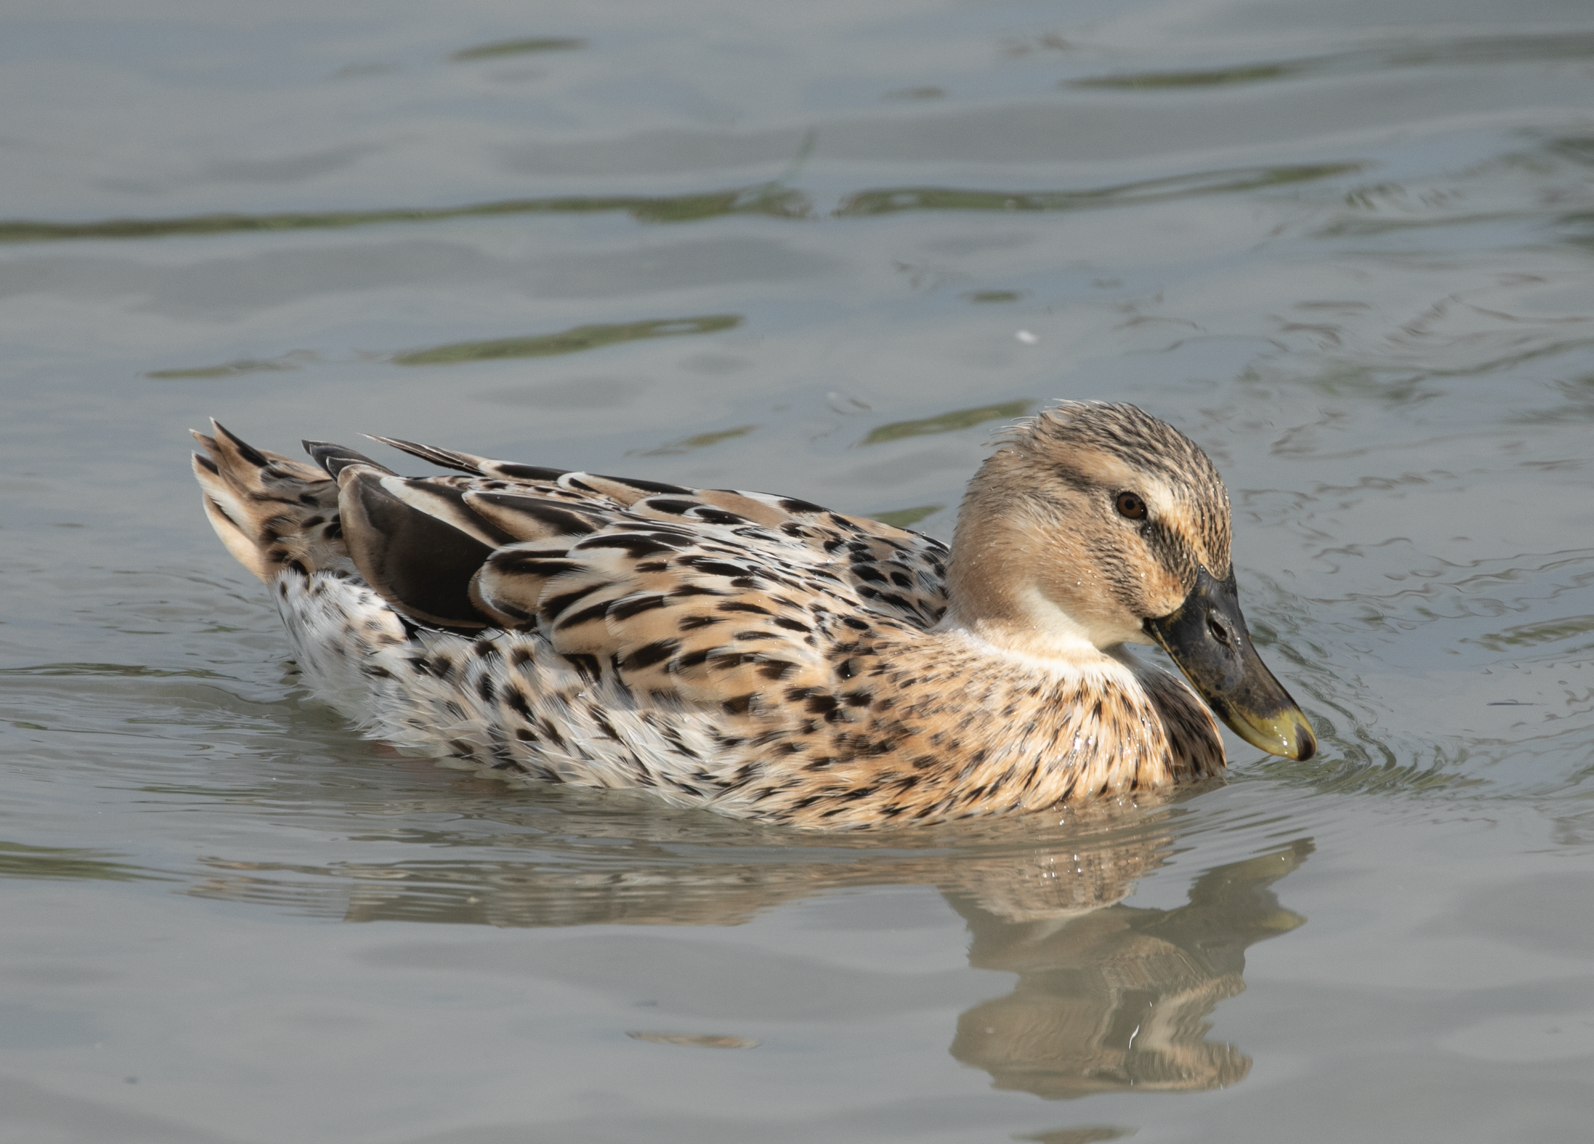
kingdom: Animalia
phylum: Chordata
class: Aves
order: Anseriformes
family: Anatidae
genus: Anas
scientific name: Anas platyrhynchos
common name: Mallard
